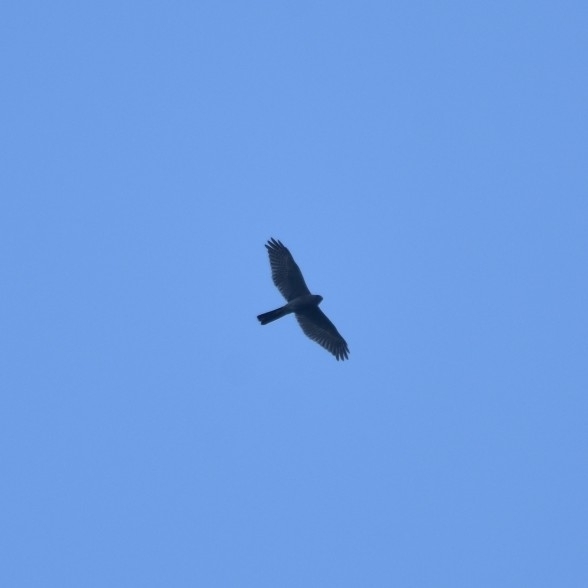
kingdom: Animalia
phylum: Chordata
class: Aves
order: Accipitriformes
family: Accipitridae
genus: Accipiter
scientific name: Accipiter badius
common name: Shikra
